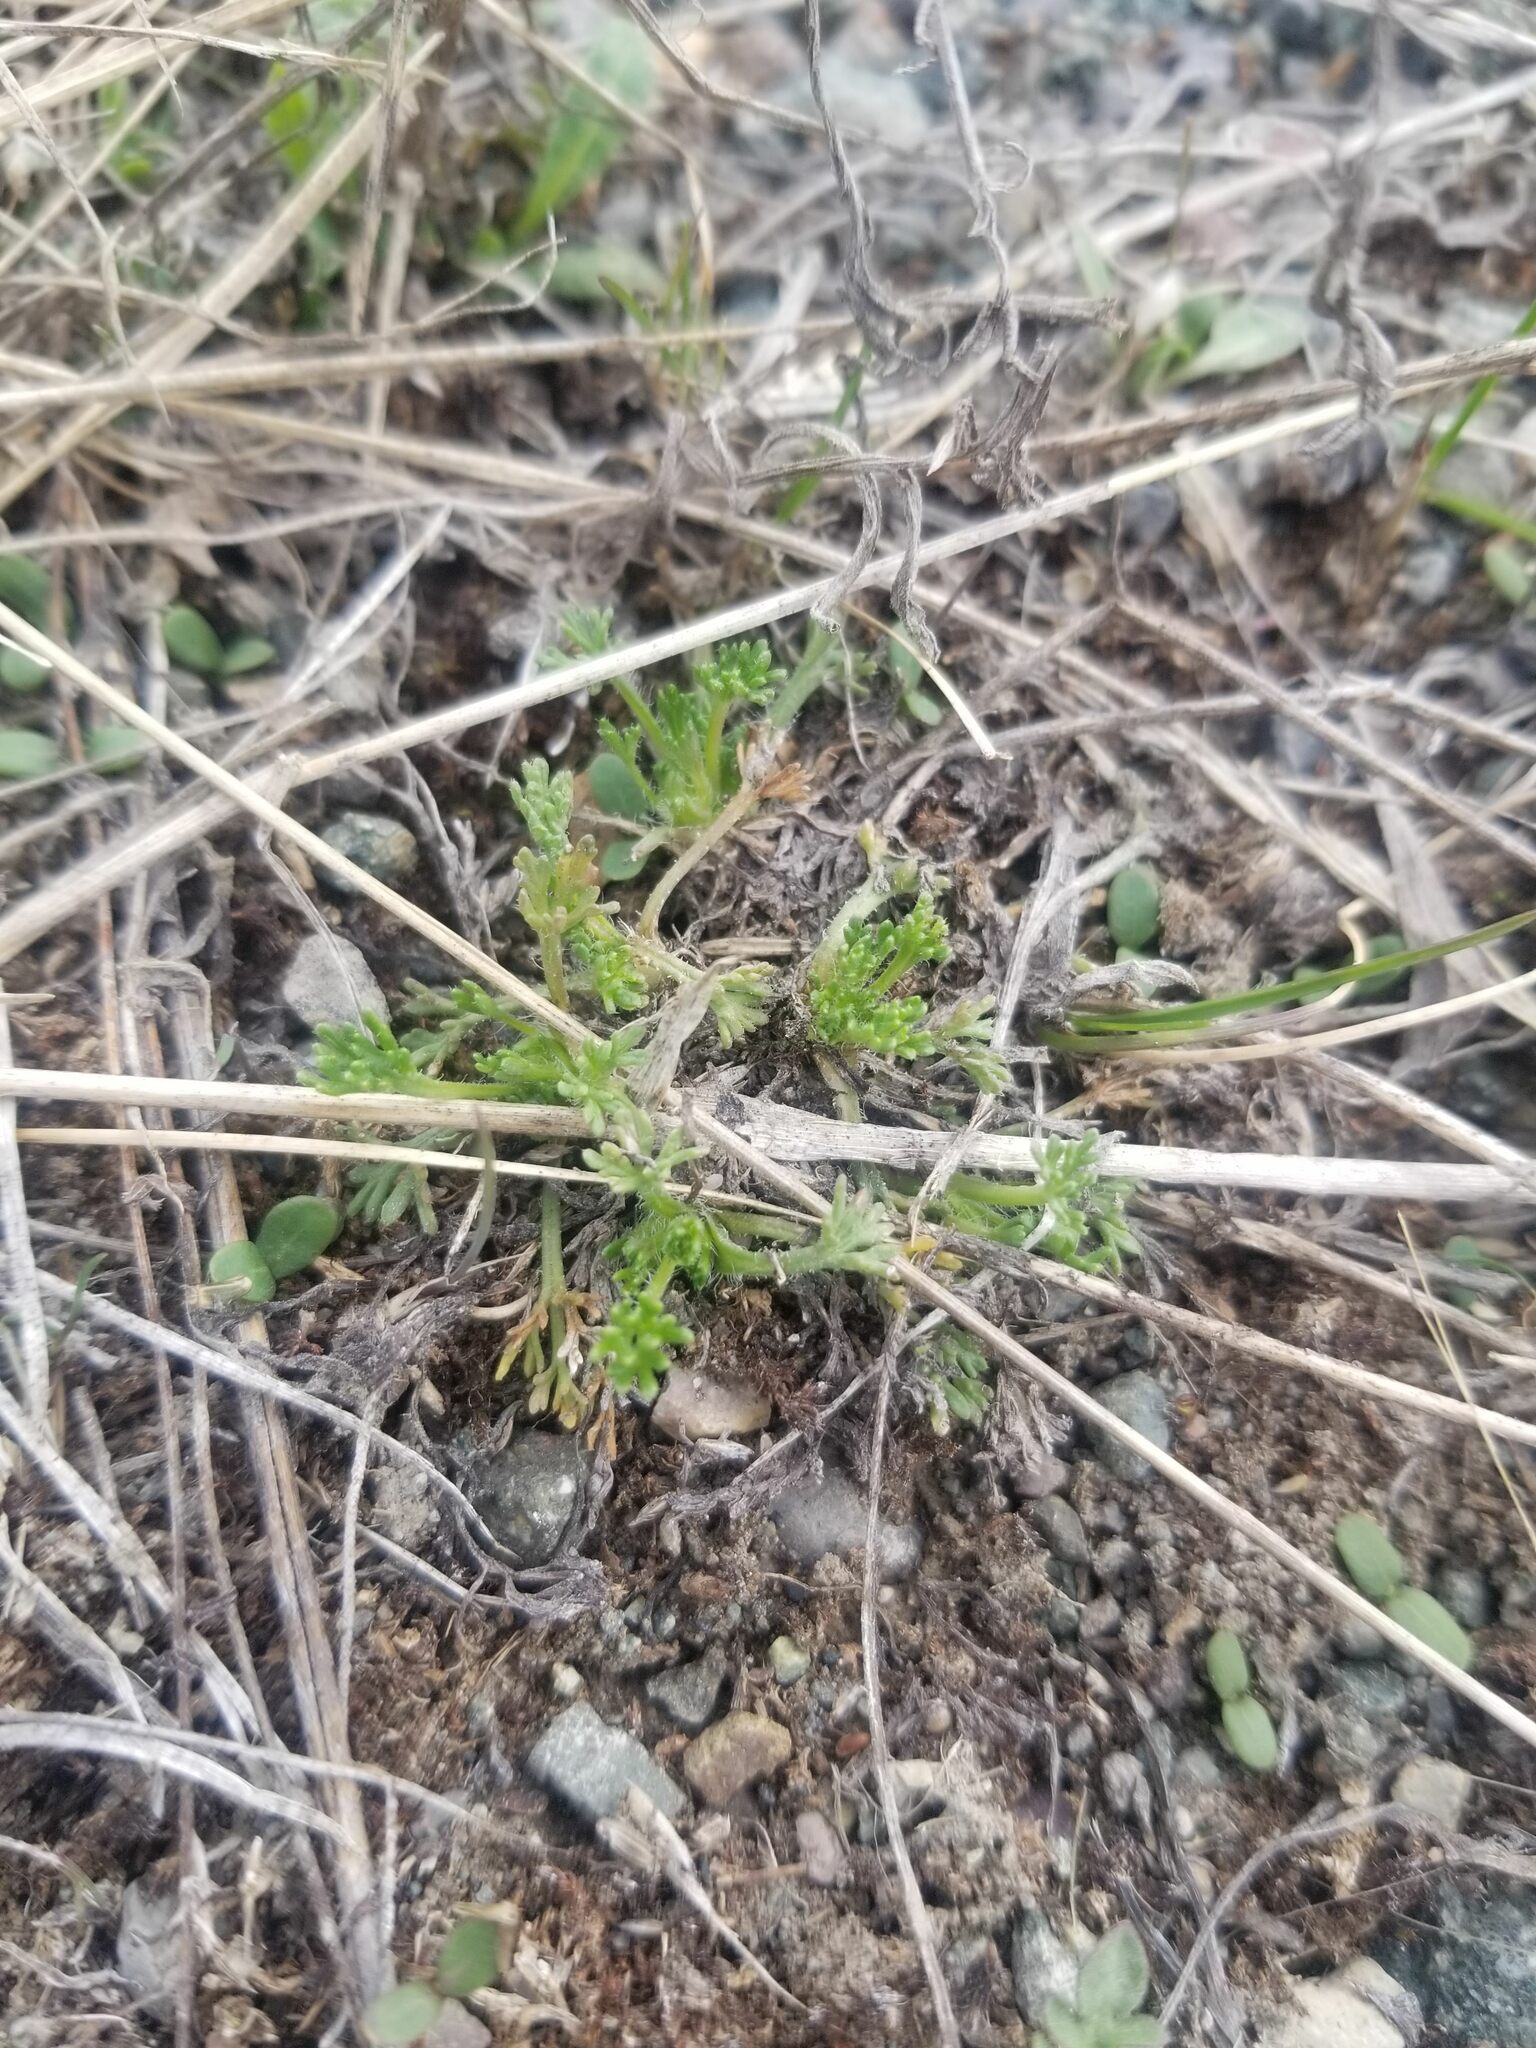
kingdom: Plantae
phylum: Tracheophyta
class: Magnoliopsida
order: Asterales
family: Asteraceae
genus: Erigeron
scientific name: Erigeron compositus
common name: Dwarf mountain fleabane
